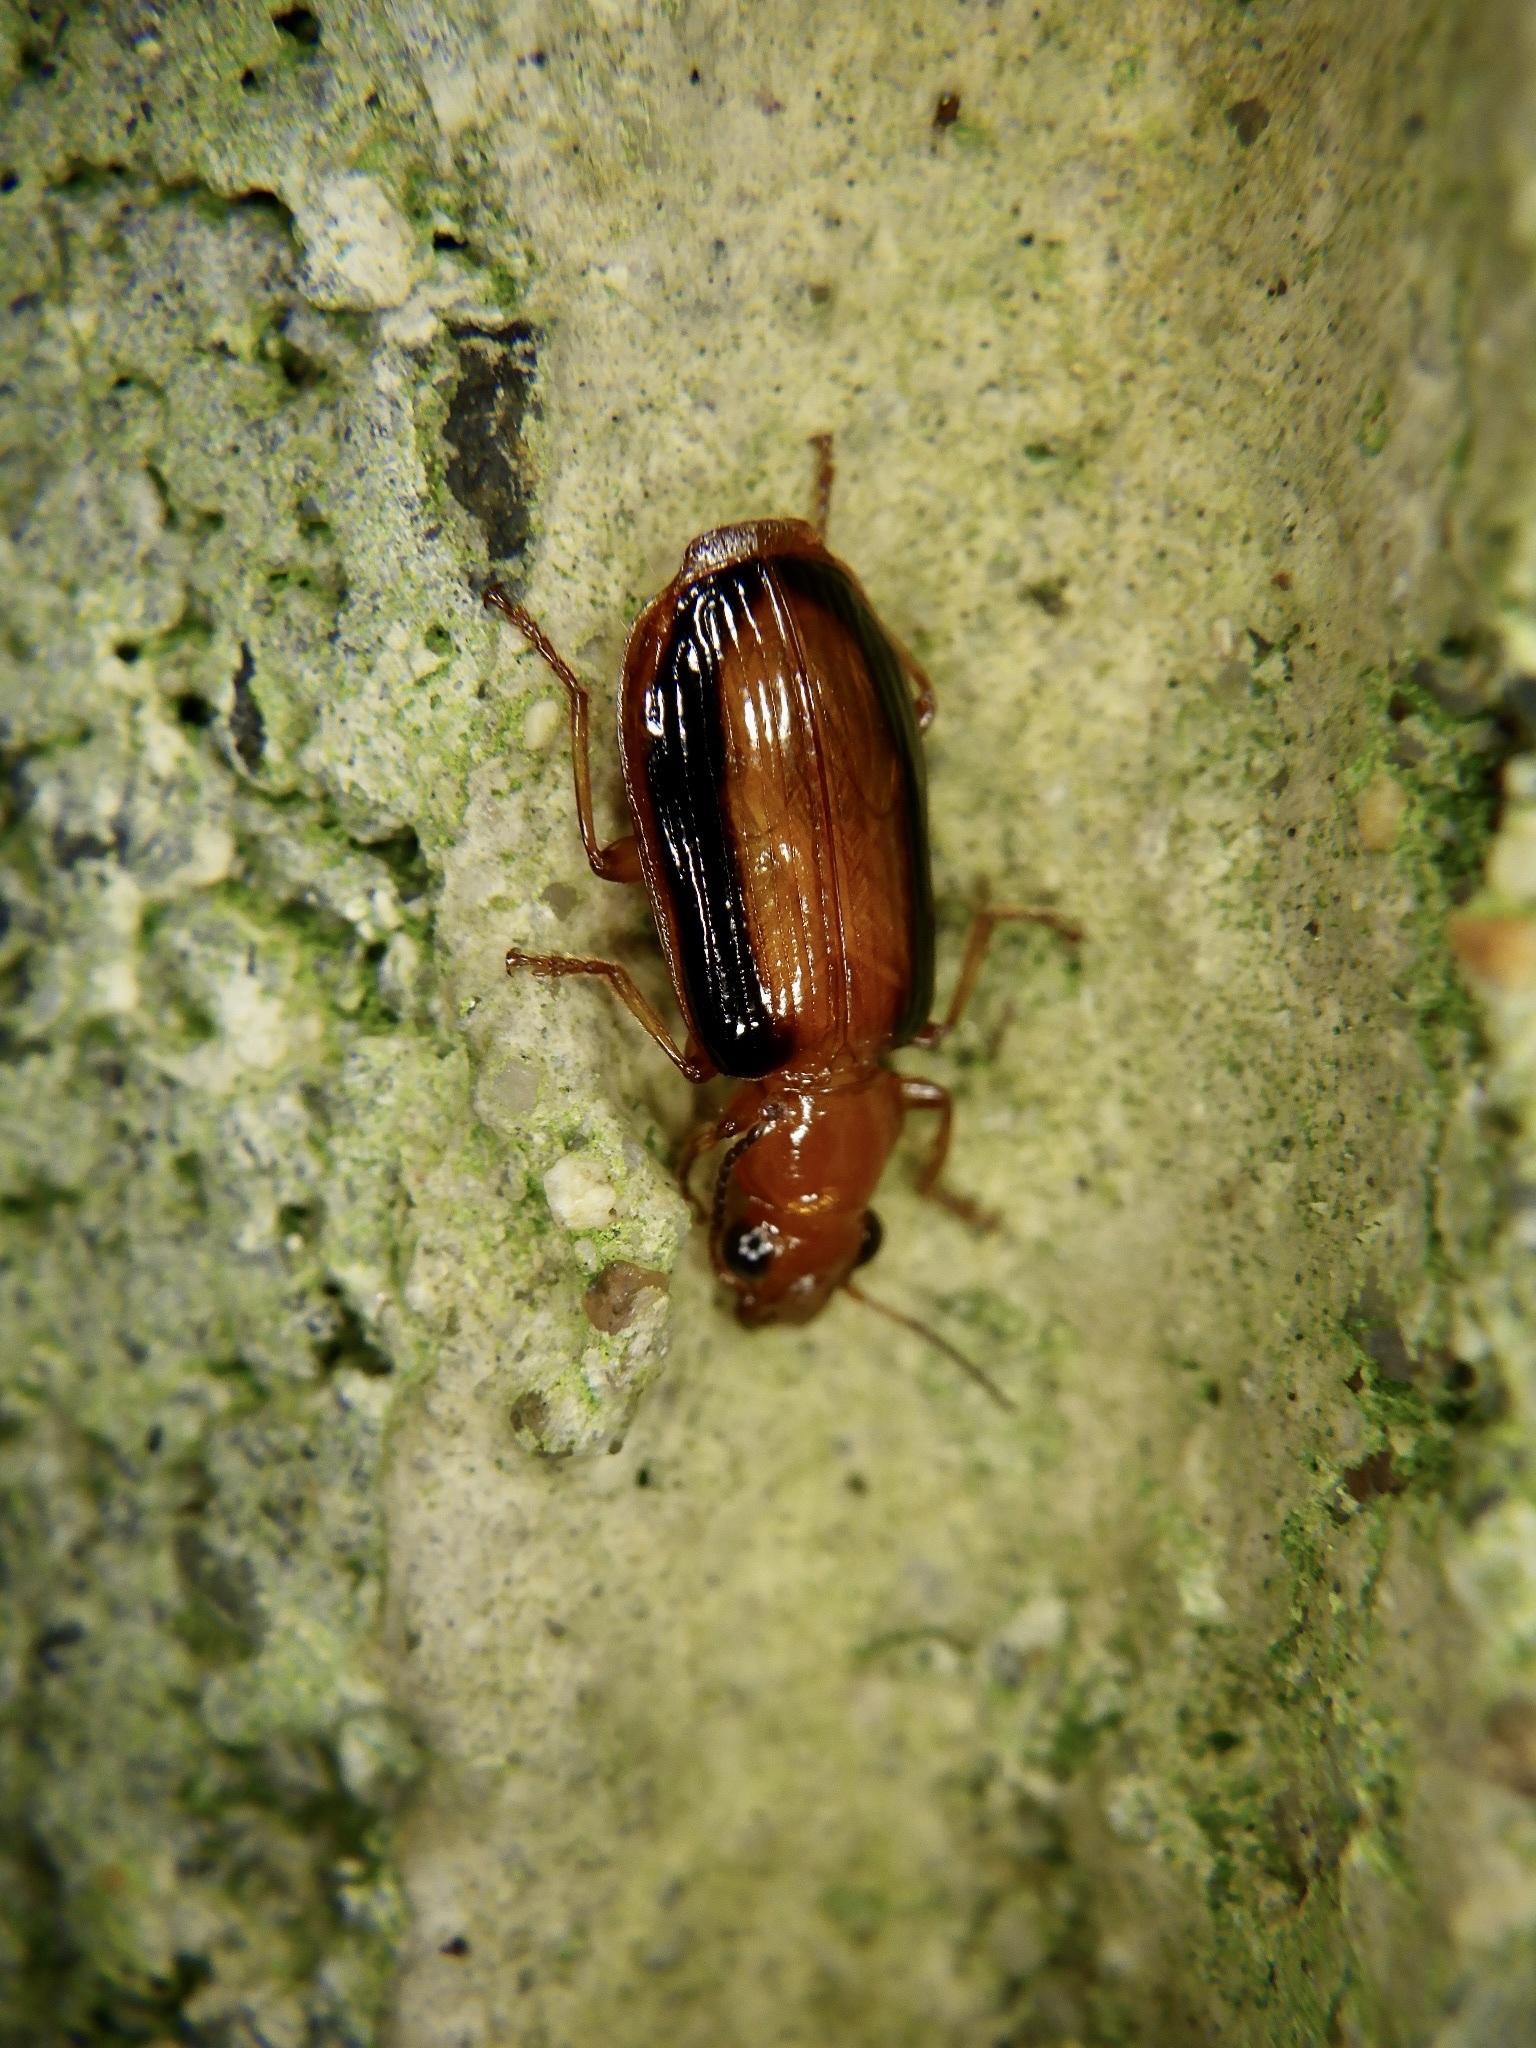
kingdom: Animalia
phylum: Arthropoda
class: Insecta
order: Coleoptera
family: Carabidae
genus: Parena
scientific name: Parena nigrolineata
